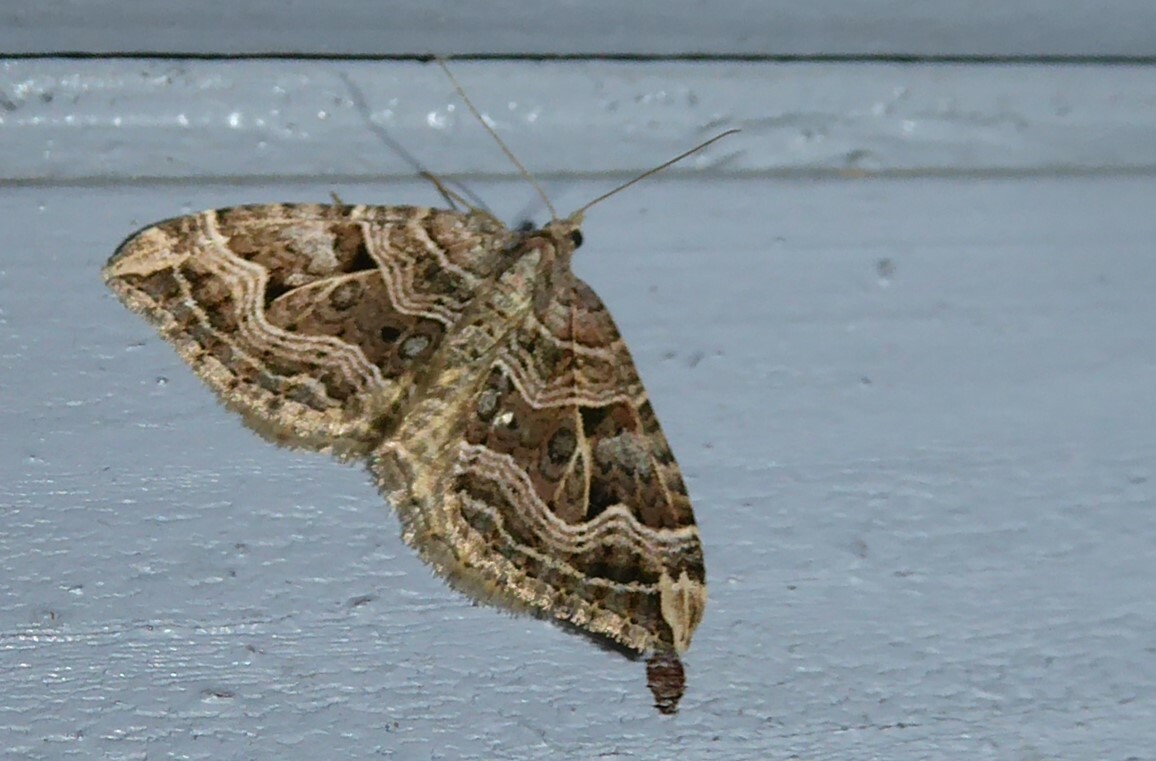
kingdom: Animalia
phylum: Arthropoda
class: Insecta
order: Lepidoptera
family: Geometridae
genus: Xanthorhoe
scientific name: Xanthorhoe semifissata
